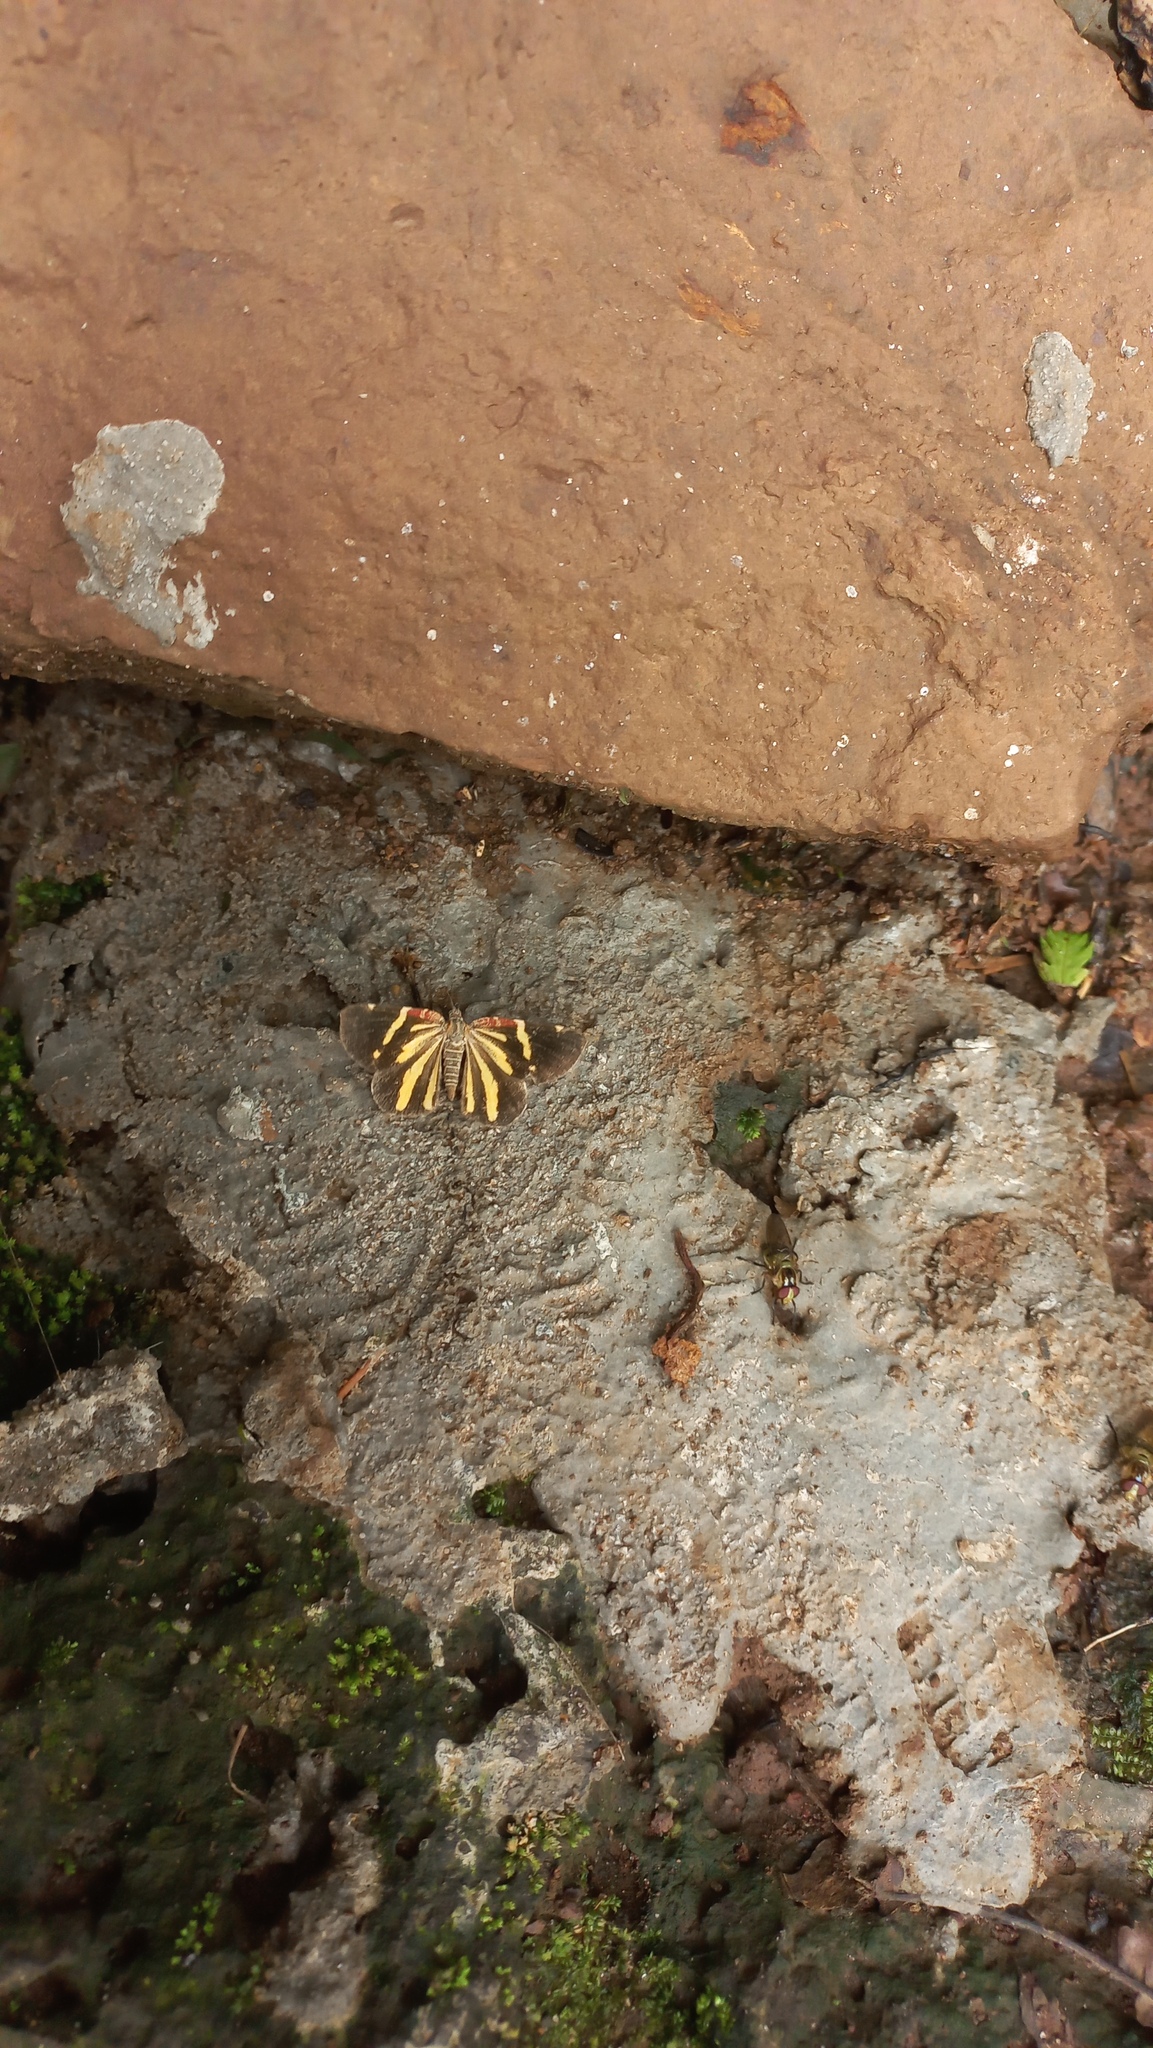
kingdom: Animalia
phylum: Arthropoda
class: Insecta
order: Lepidoptera
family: Geometridae
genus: Heterusia
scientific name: Heterusia quadruplicaria
